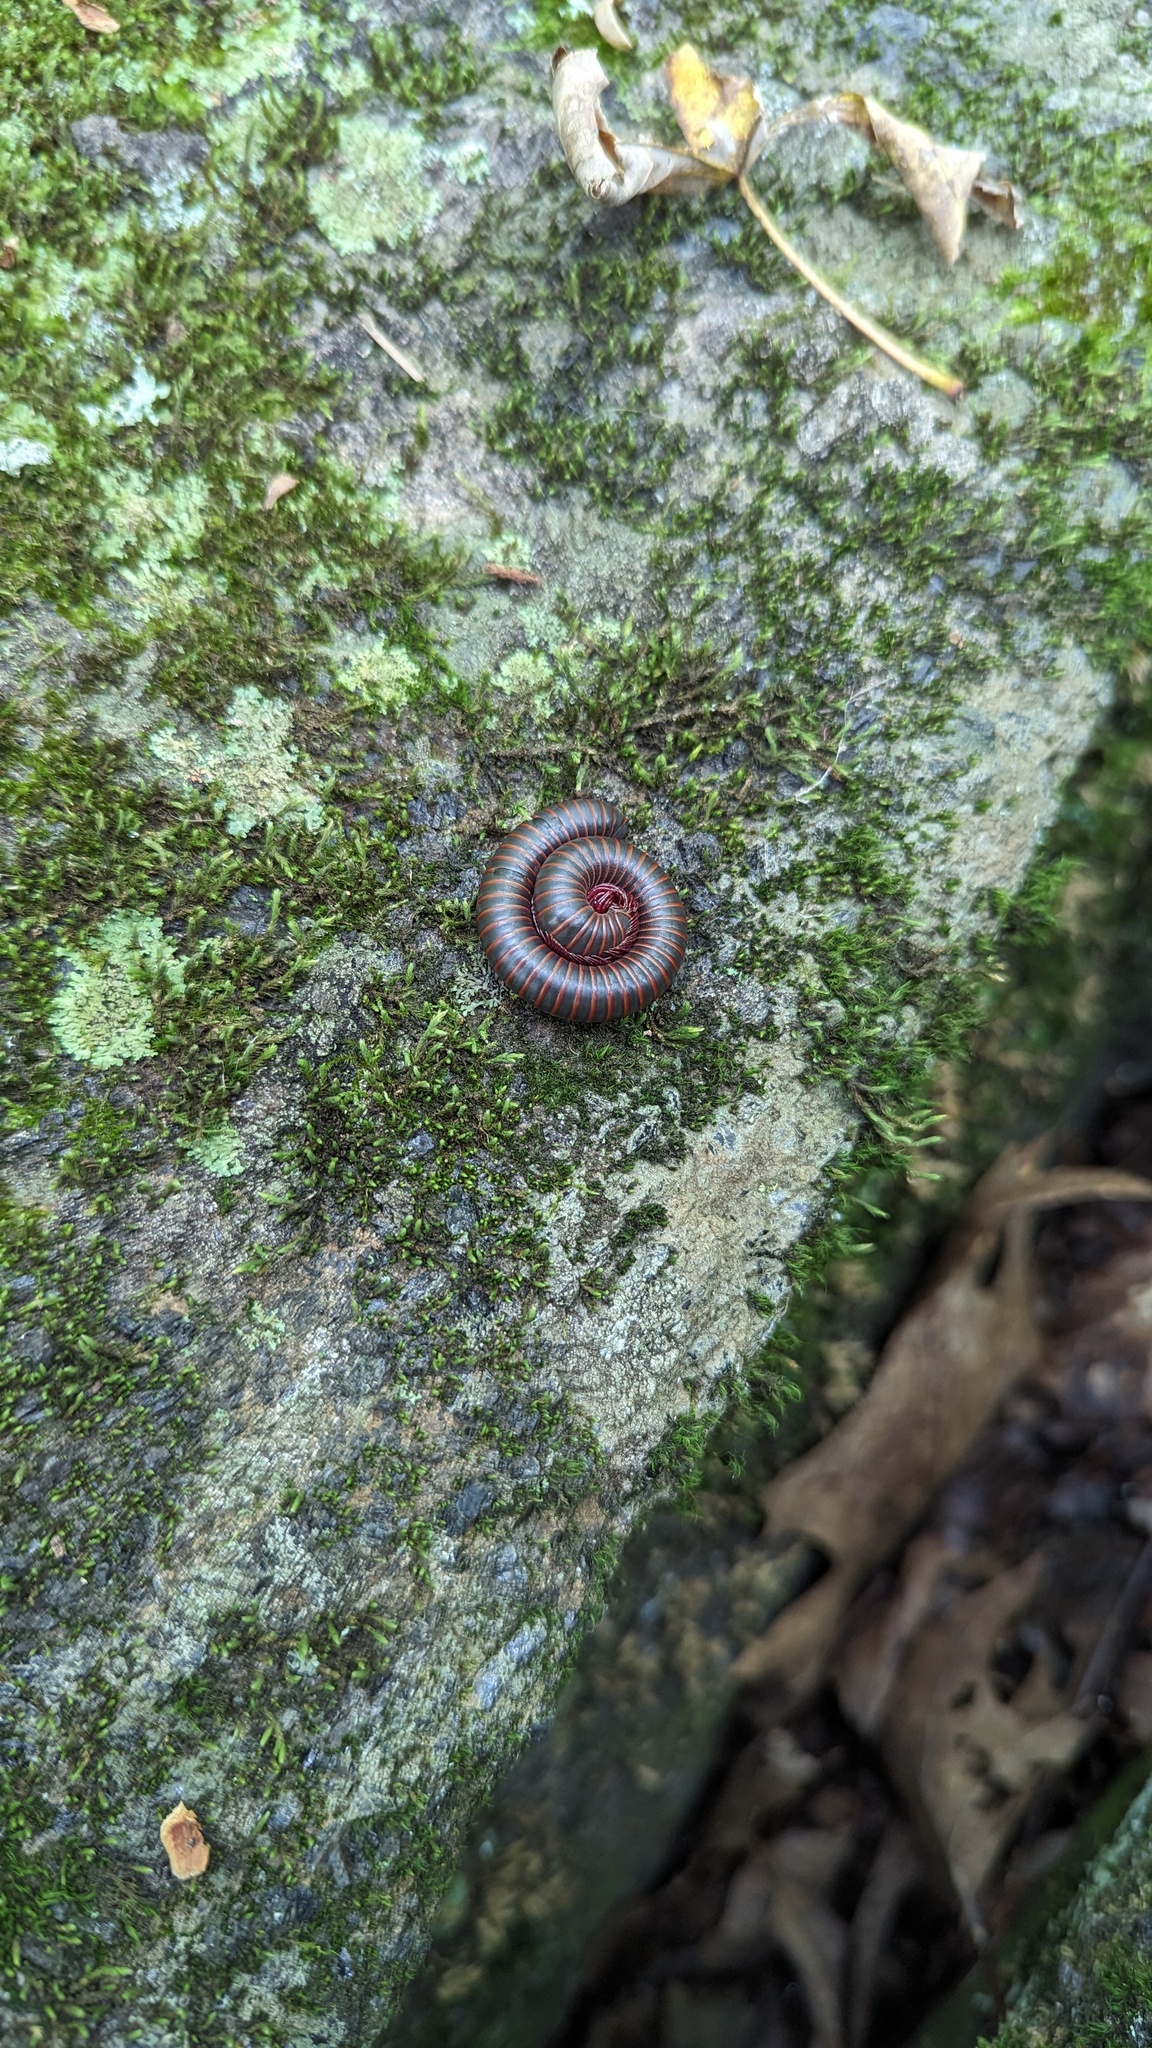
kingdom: Animalia
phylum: Arthropoda
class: Diplopoda
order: Spirobolida
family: Spirobolidae
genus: Narceus
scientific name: Narceus americanus
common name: American giant millipede
